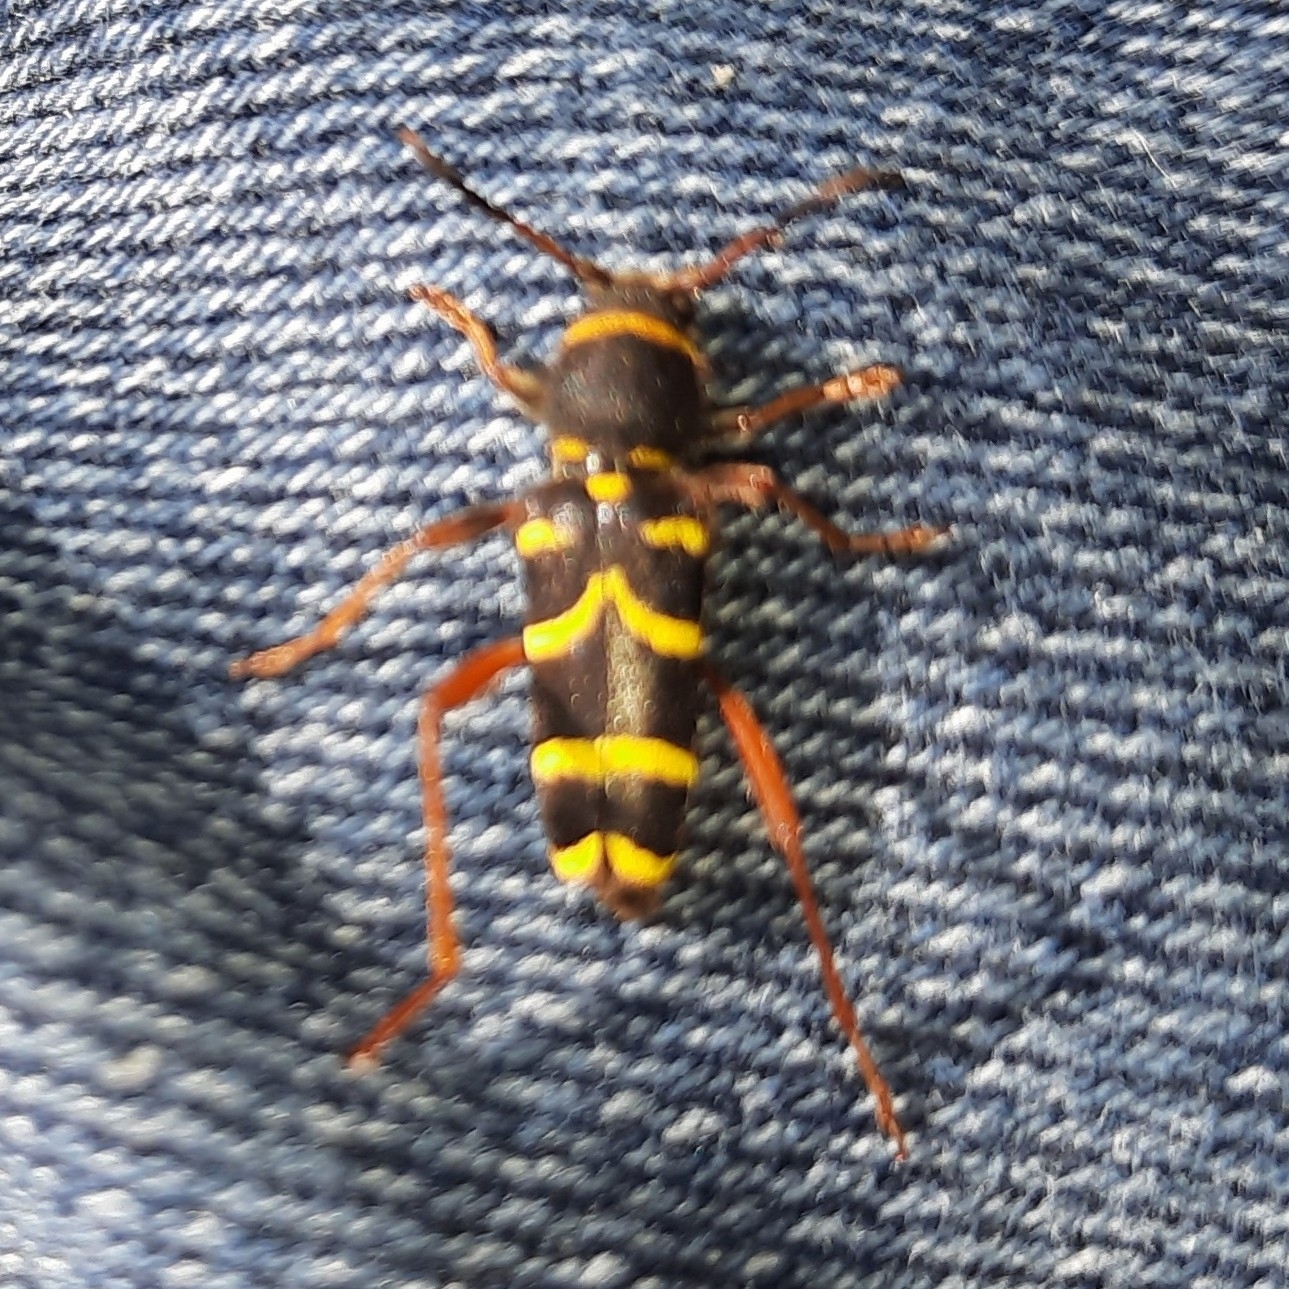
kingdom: Animalia
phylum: Arthropoda
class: Insecta
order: Coleoptera
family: Cerambycidae
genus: Clytus
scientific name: Clytus arietis
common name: Wasp beetle
